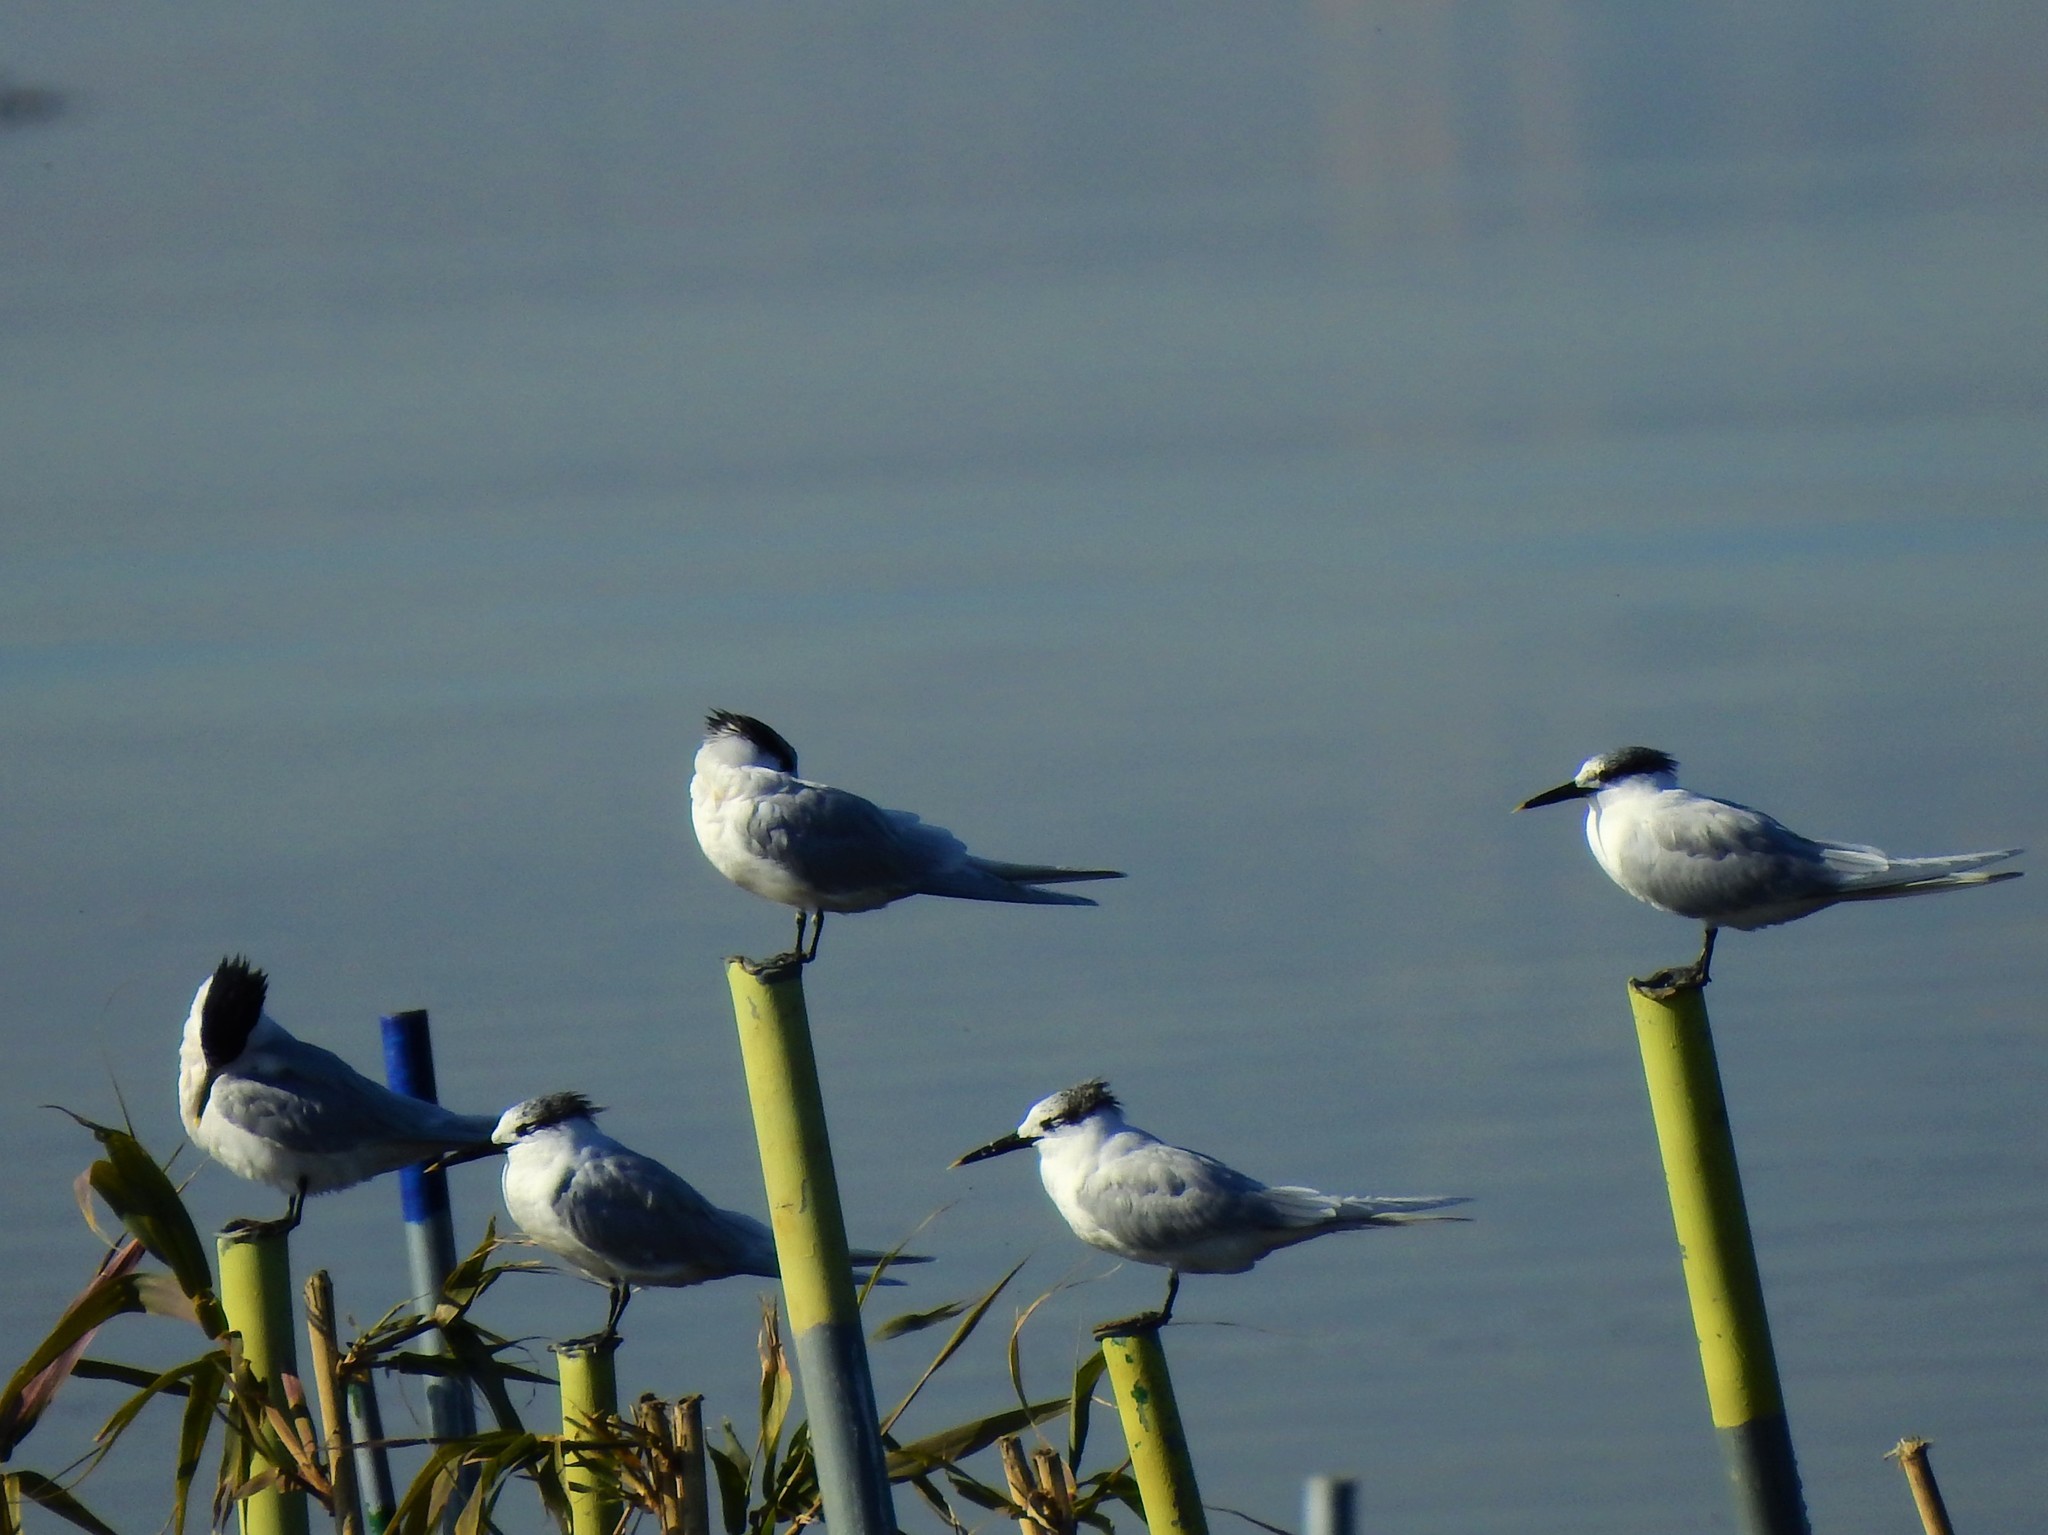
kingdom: Animalia
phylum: Chordata
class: Aves
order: Charadriiformes
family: Laridae
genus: Thalasseus
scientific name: Thalasseus sandvicensis
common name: Sandwich tern
